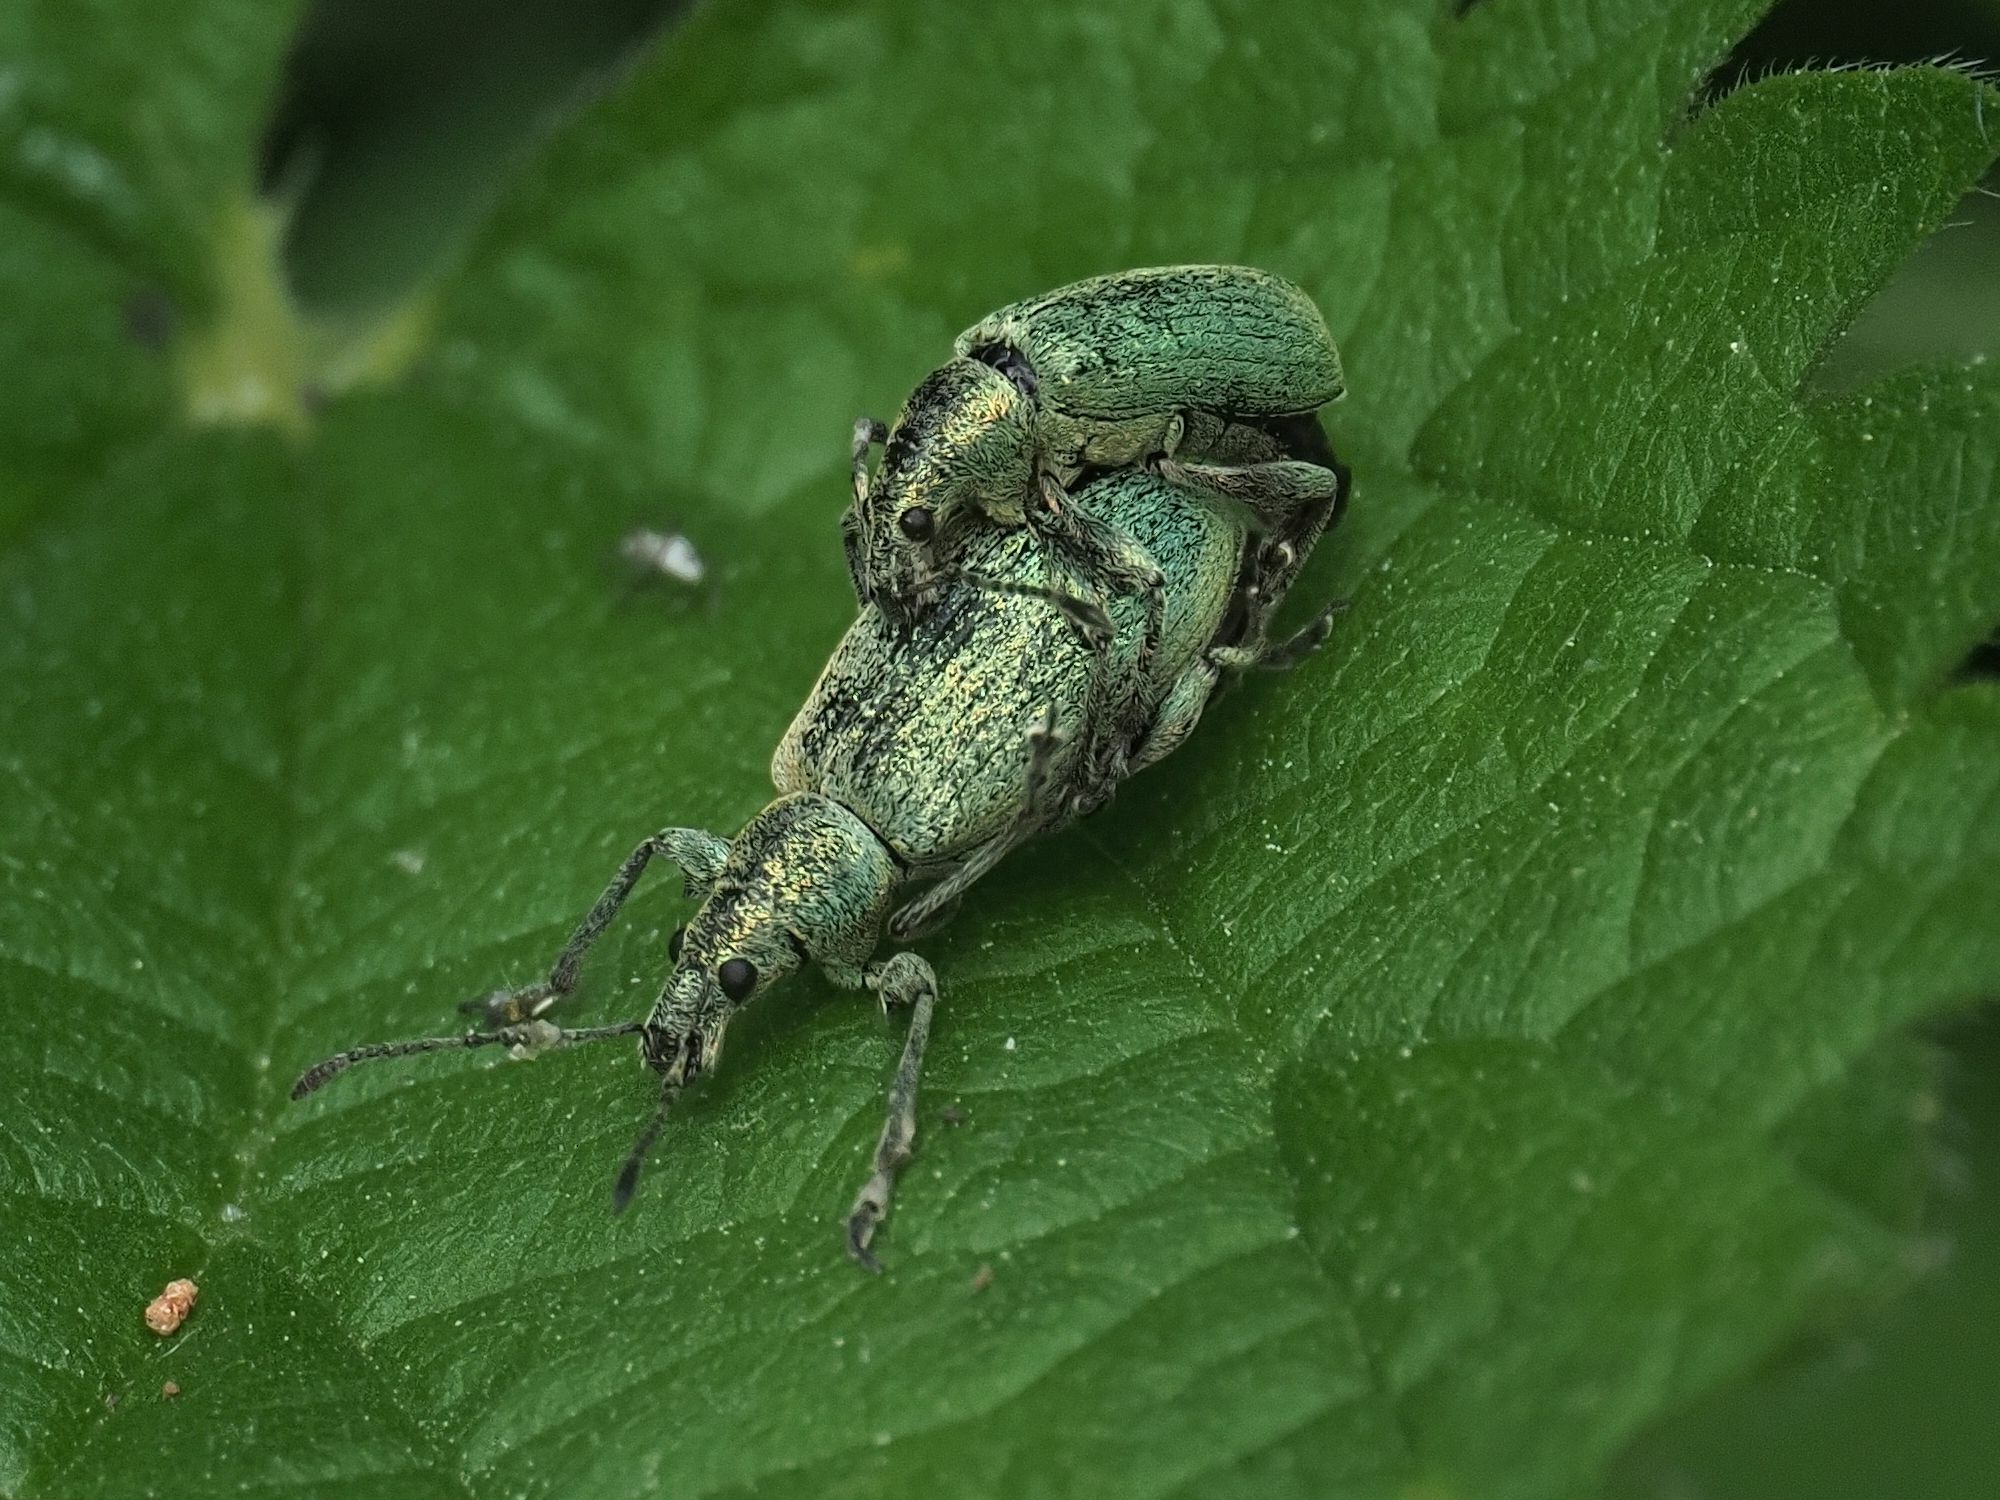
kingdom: Animalia
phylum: Arthropoda
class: Insecta
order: Coleoptera
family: Curculionidae
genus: Phyllobius
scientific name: Phyllobius pomaceus
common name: Green nettle weevil
